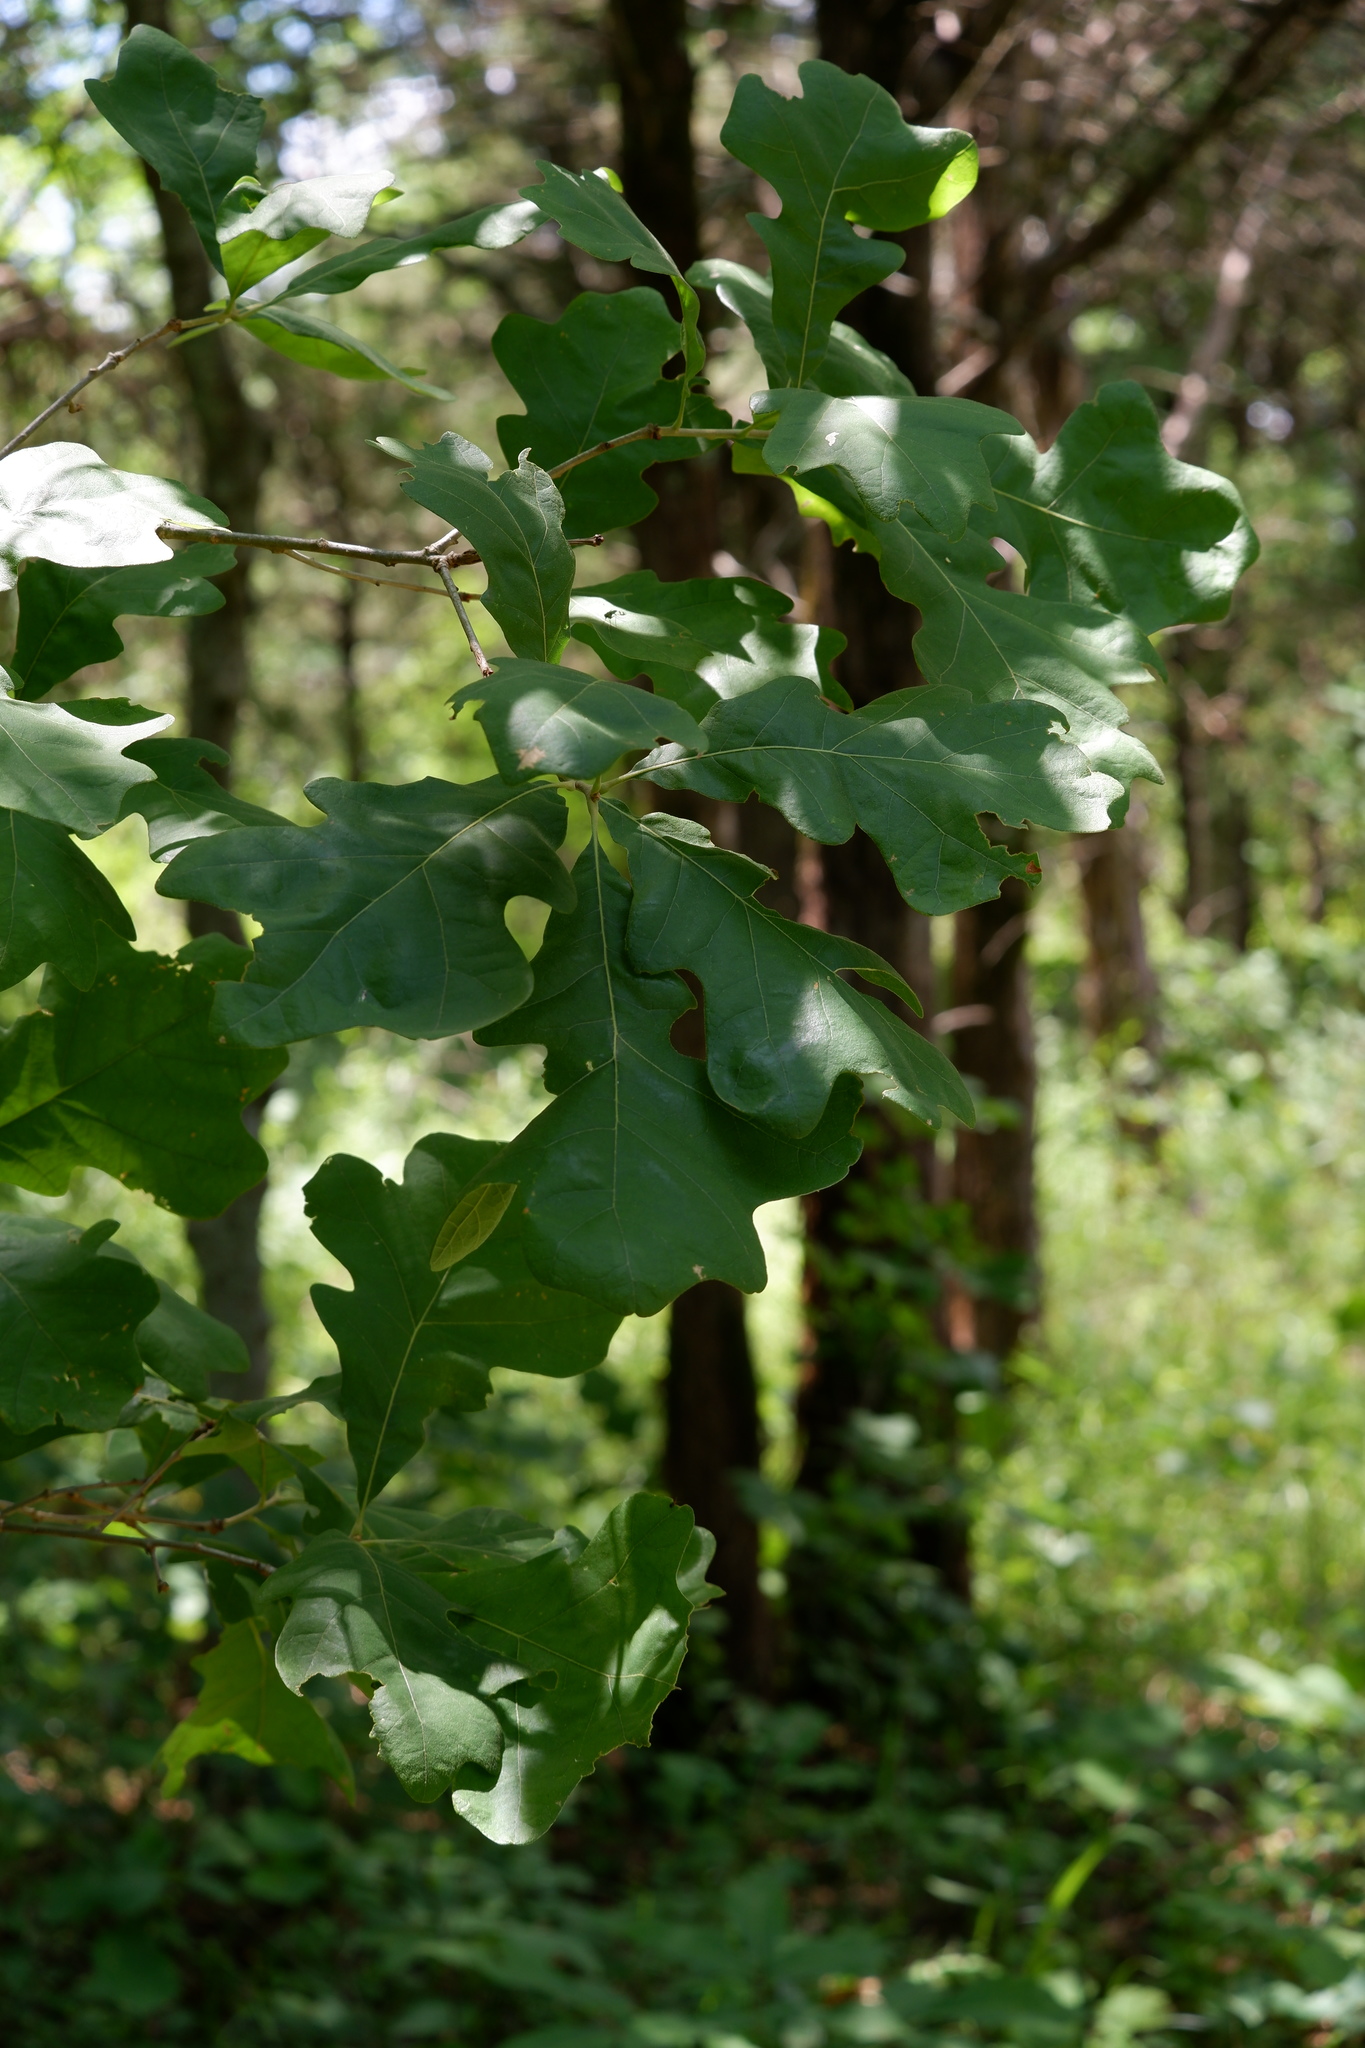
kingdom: Plantae
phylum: Tracheophyta
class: Magnoliopsida
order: Fagales
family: Fagaceae
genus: Quercus
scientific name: Quercus macrocarpa
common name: Bur oak
